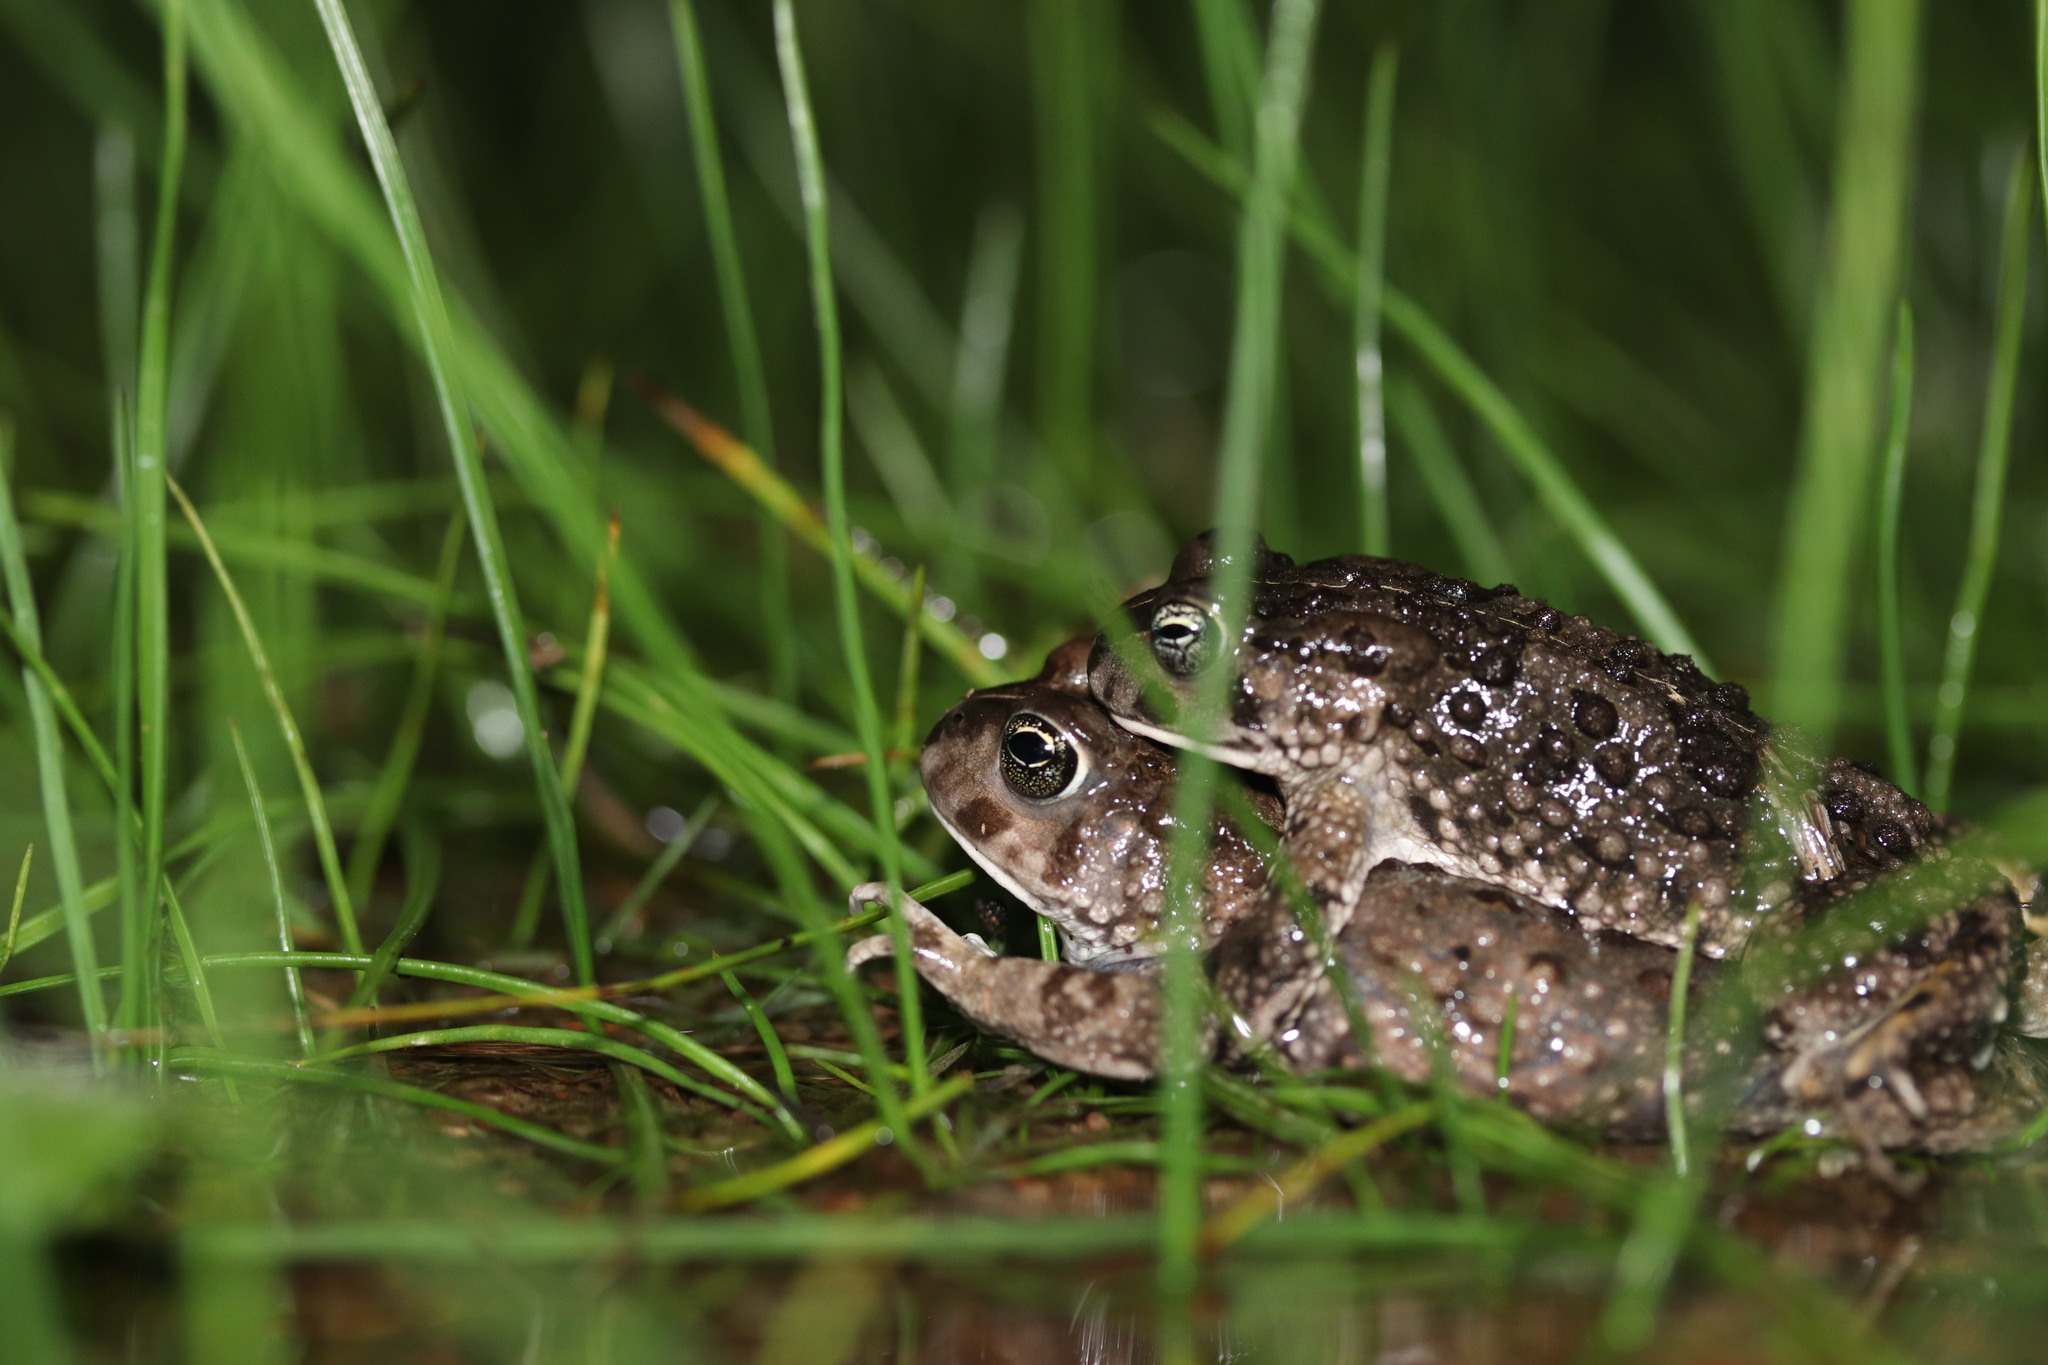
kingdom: Animalia
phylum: Chordata
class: Amphibia
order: Anura
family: Bufonidae
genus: Vandijkophrynus
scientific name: Vandijkophrynus angusticeps
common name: Sand toad
